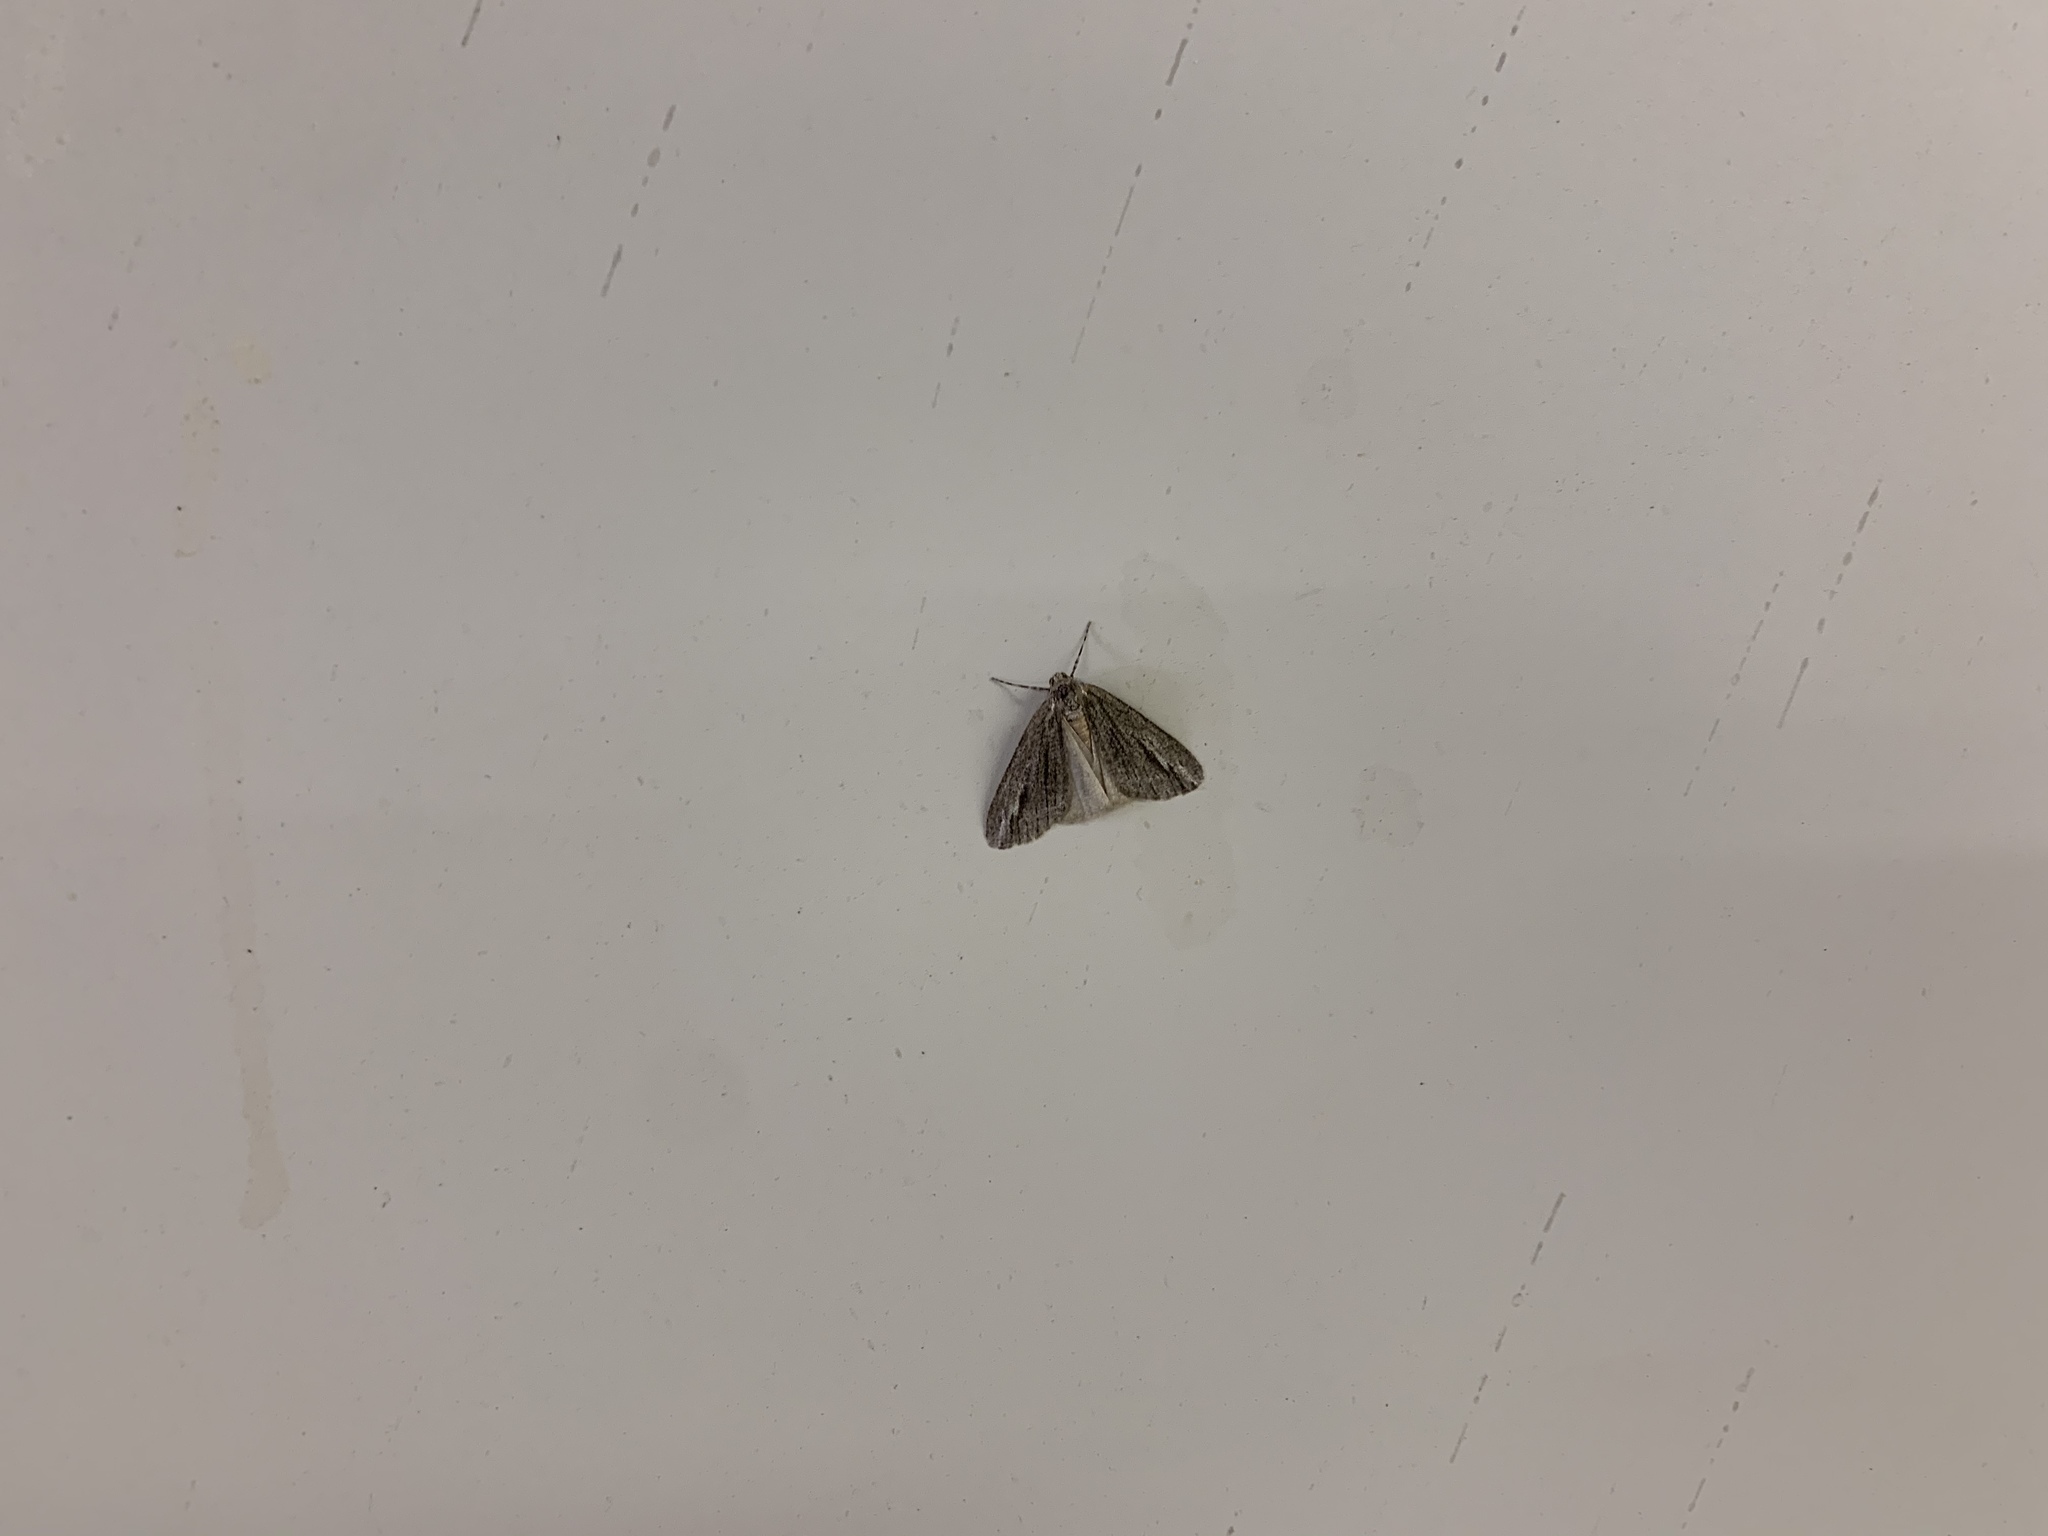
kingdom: Animalia
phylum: Arthropoda
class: Insecta
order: Lepidoptera
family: Geometridae
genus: Carphoides
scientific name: Carphoides incopriarius
